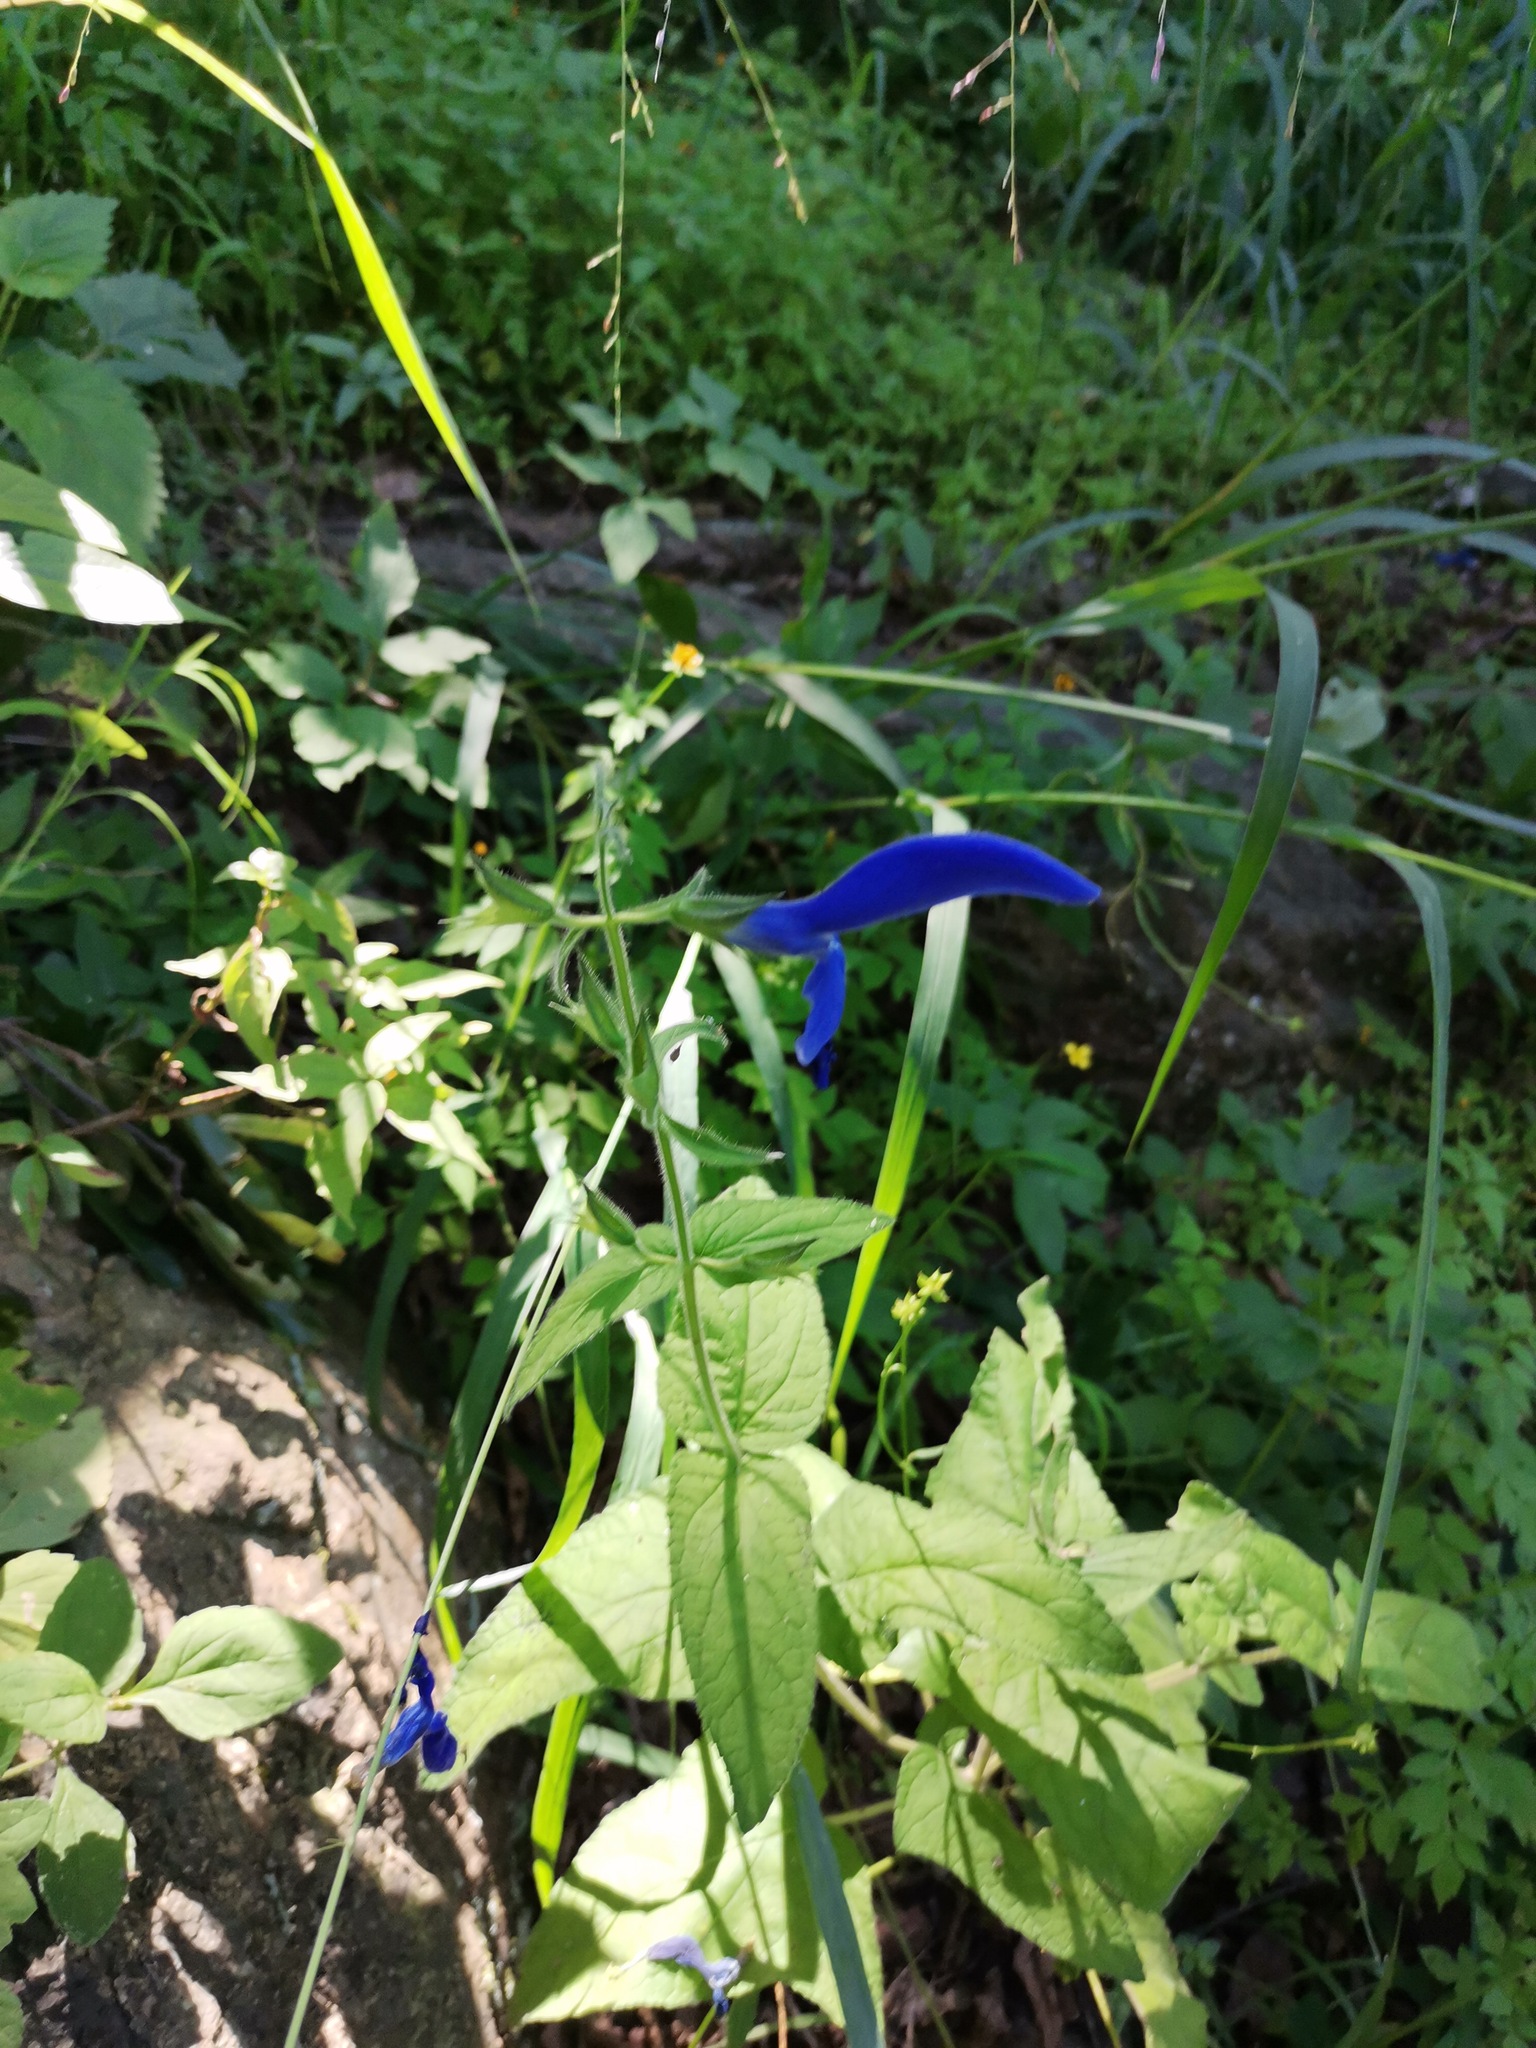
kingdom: Plantae
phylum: Tracheophyta
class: Magnoliopsida
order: Lamiales
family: Lamiaceae
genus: Salvia
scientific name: Salvia patens
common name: Blue sage
